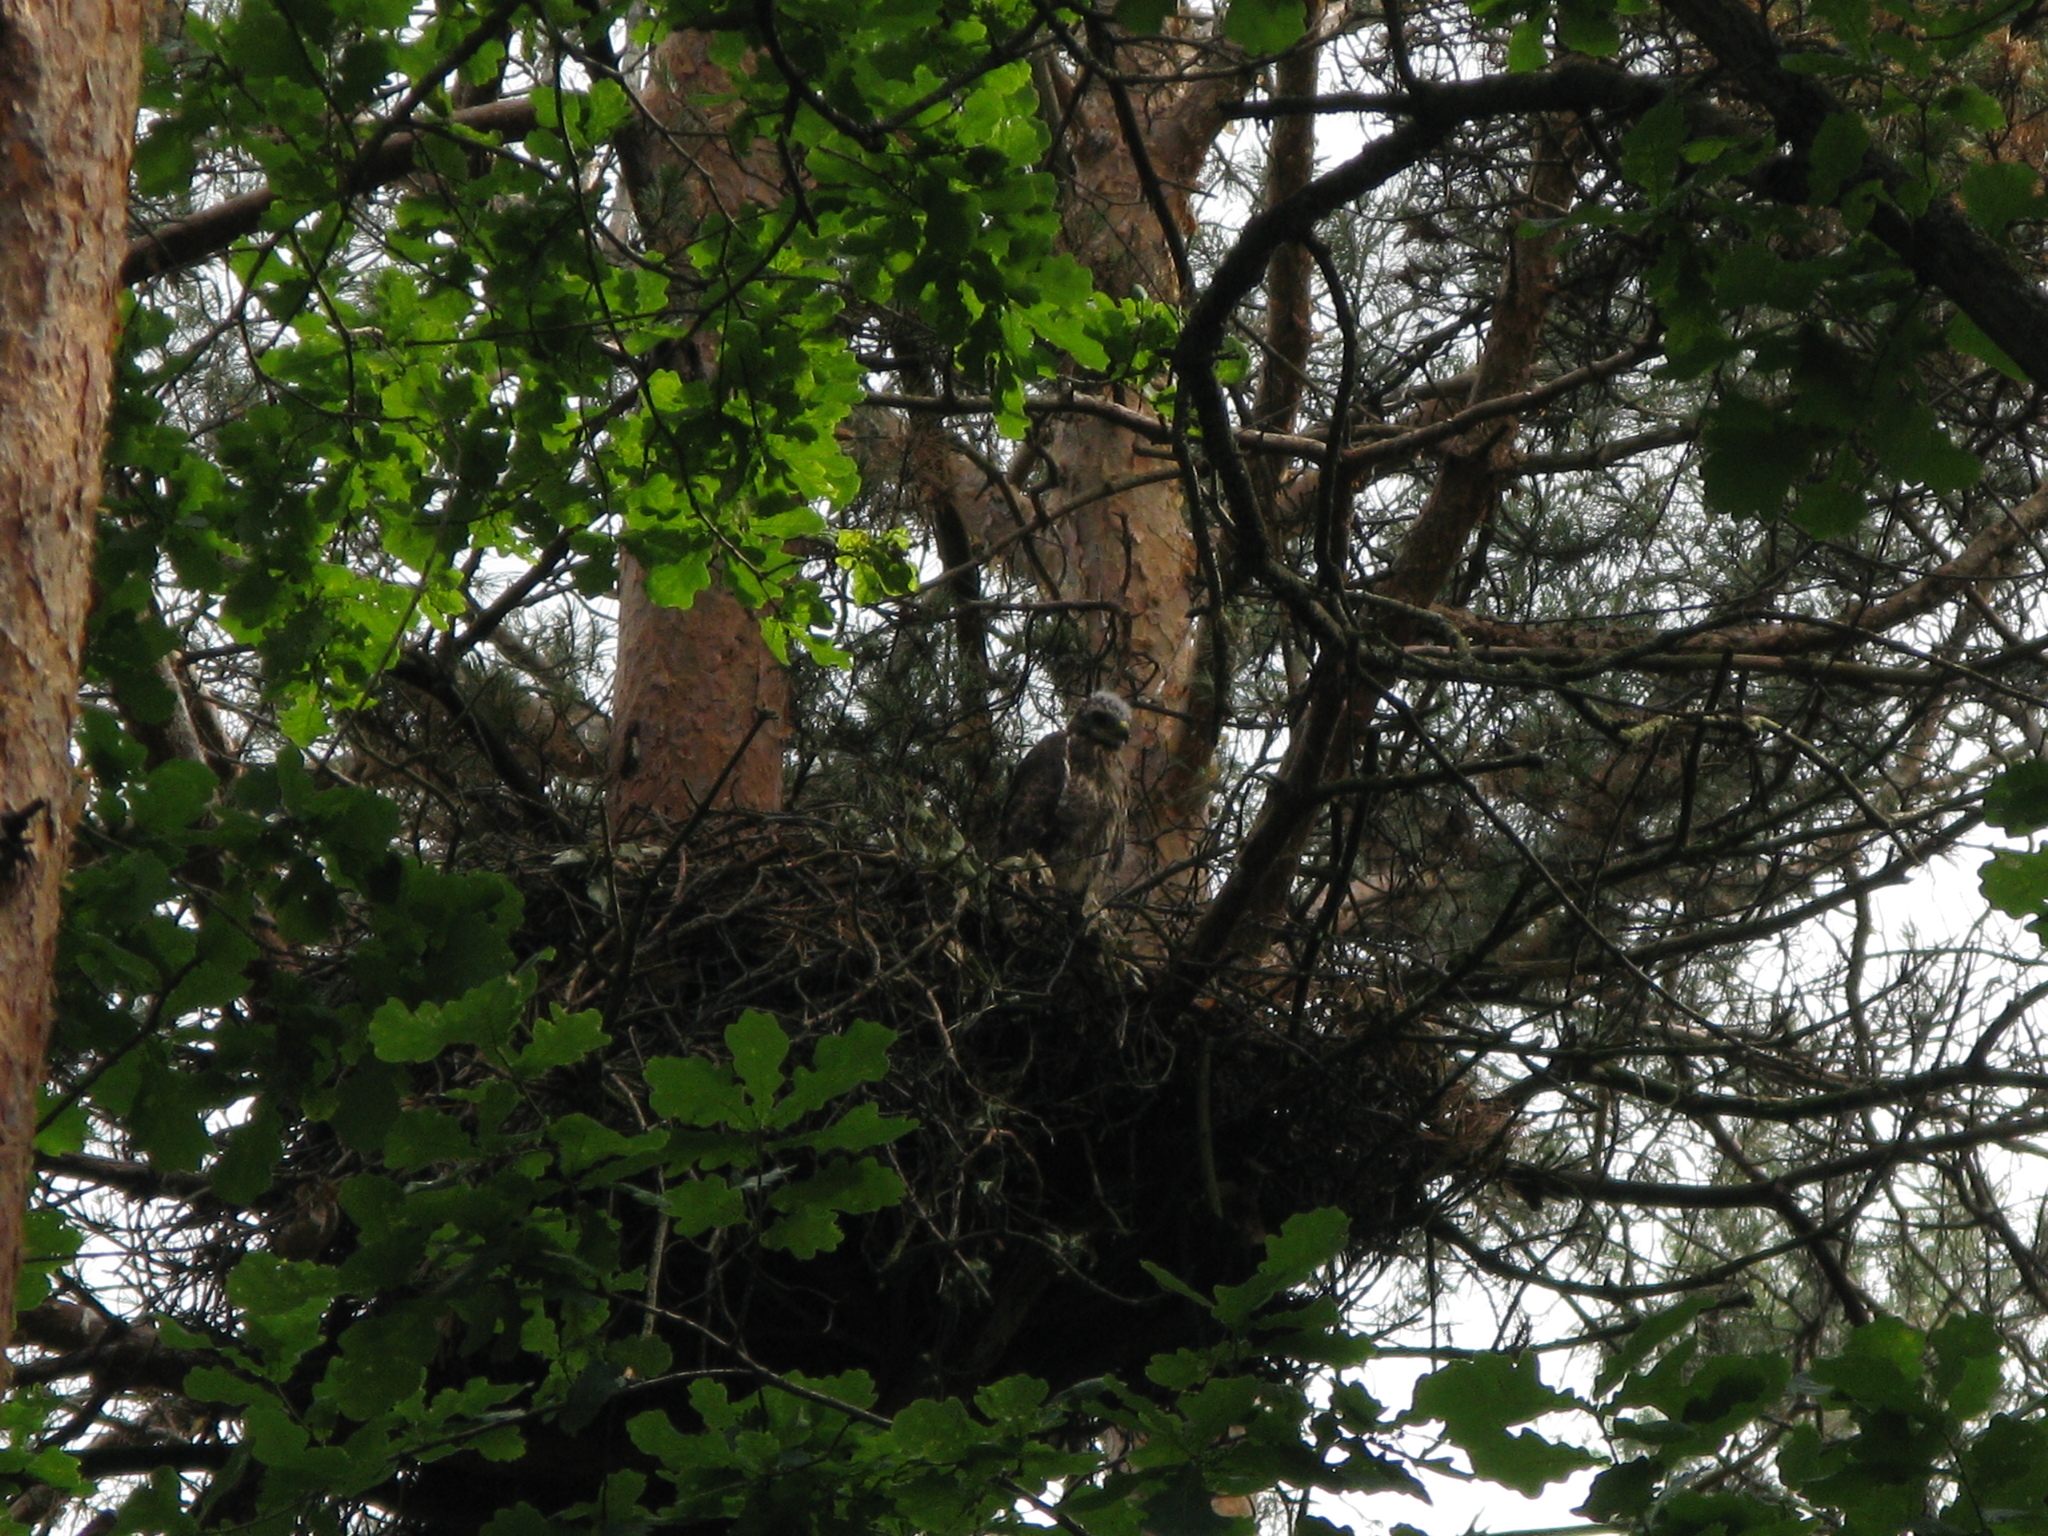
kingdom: Animalia
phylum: Chordata
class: Aves
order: Accipitriformes
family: Accipitridae
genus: Buteo
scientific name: Buteo buteo
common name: Common buzzard
